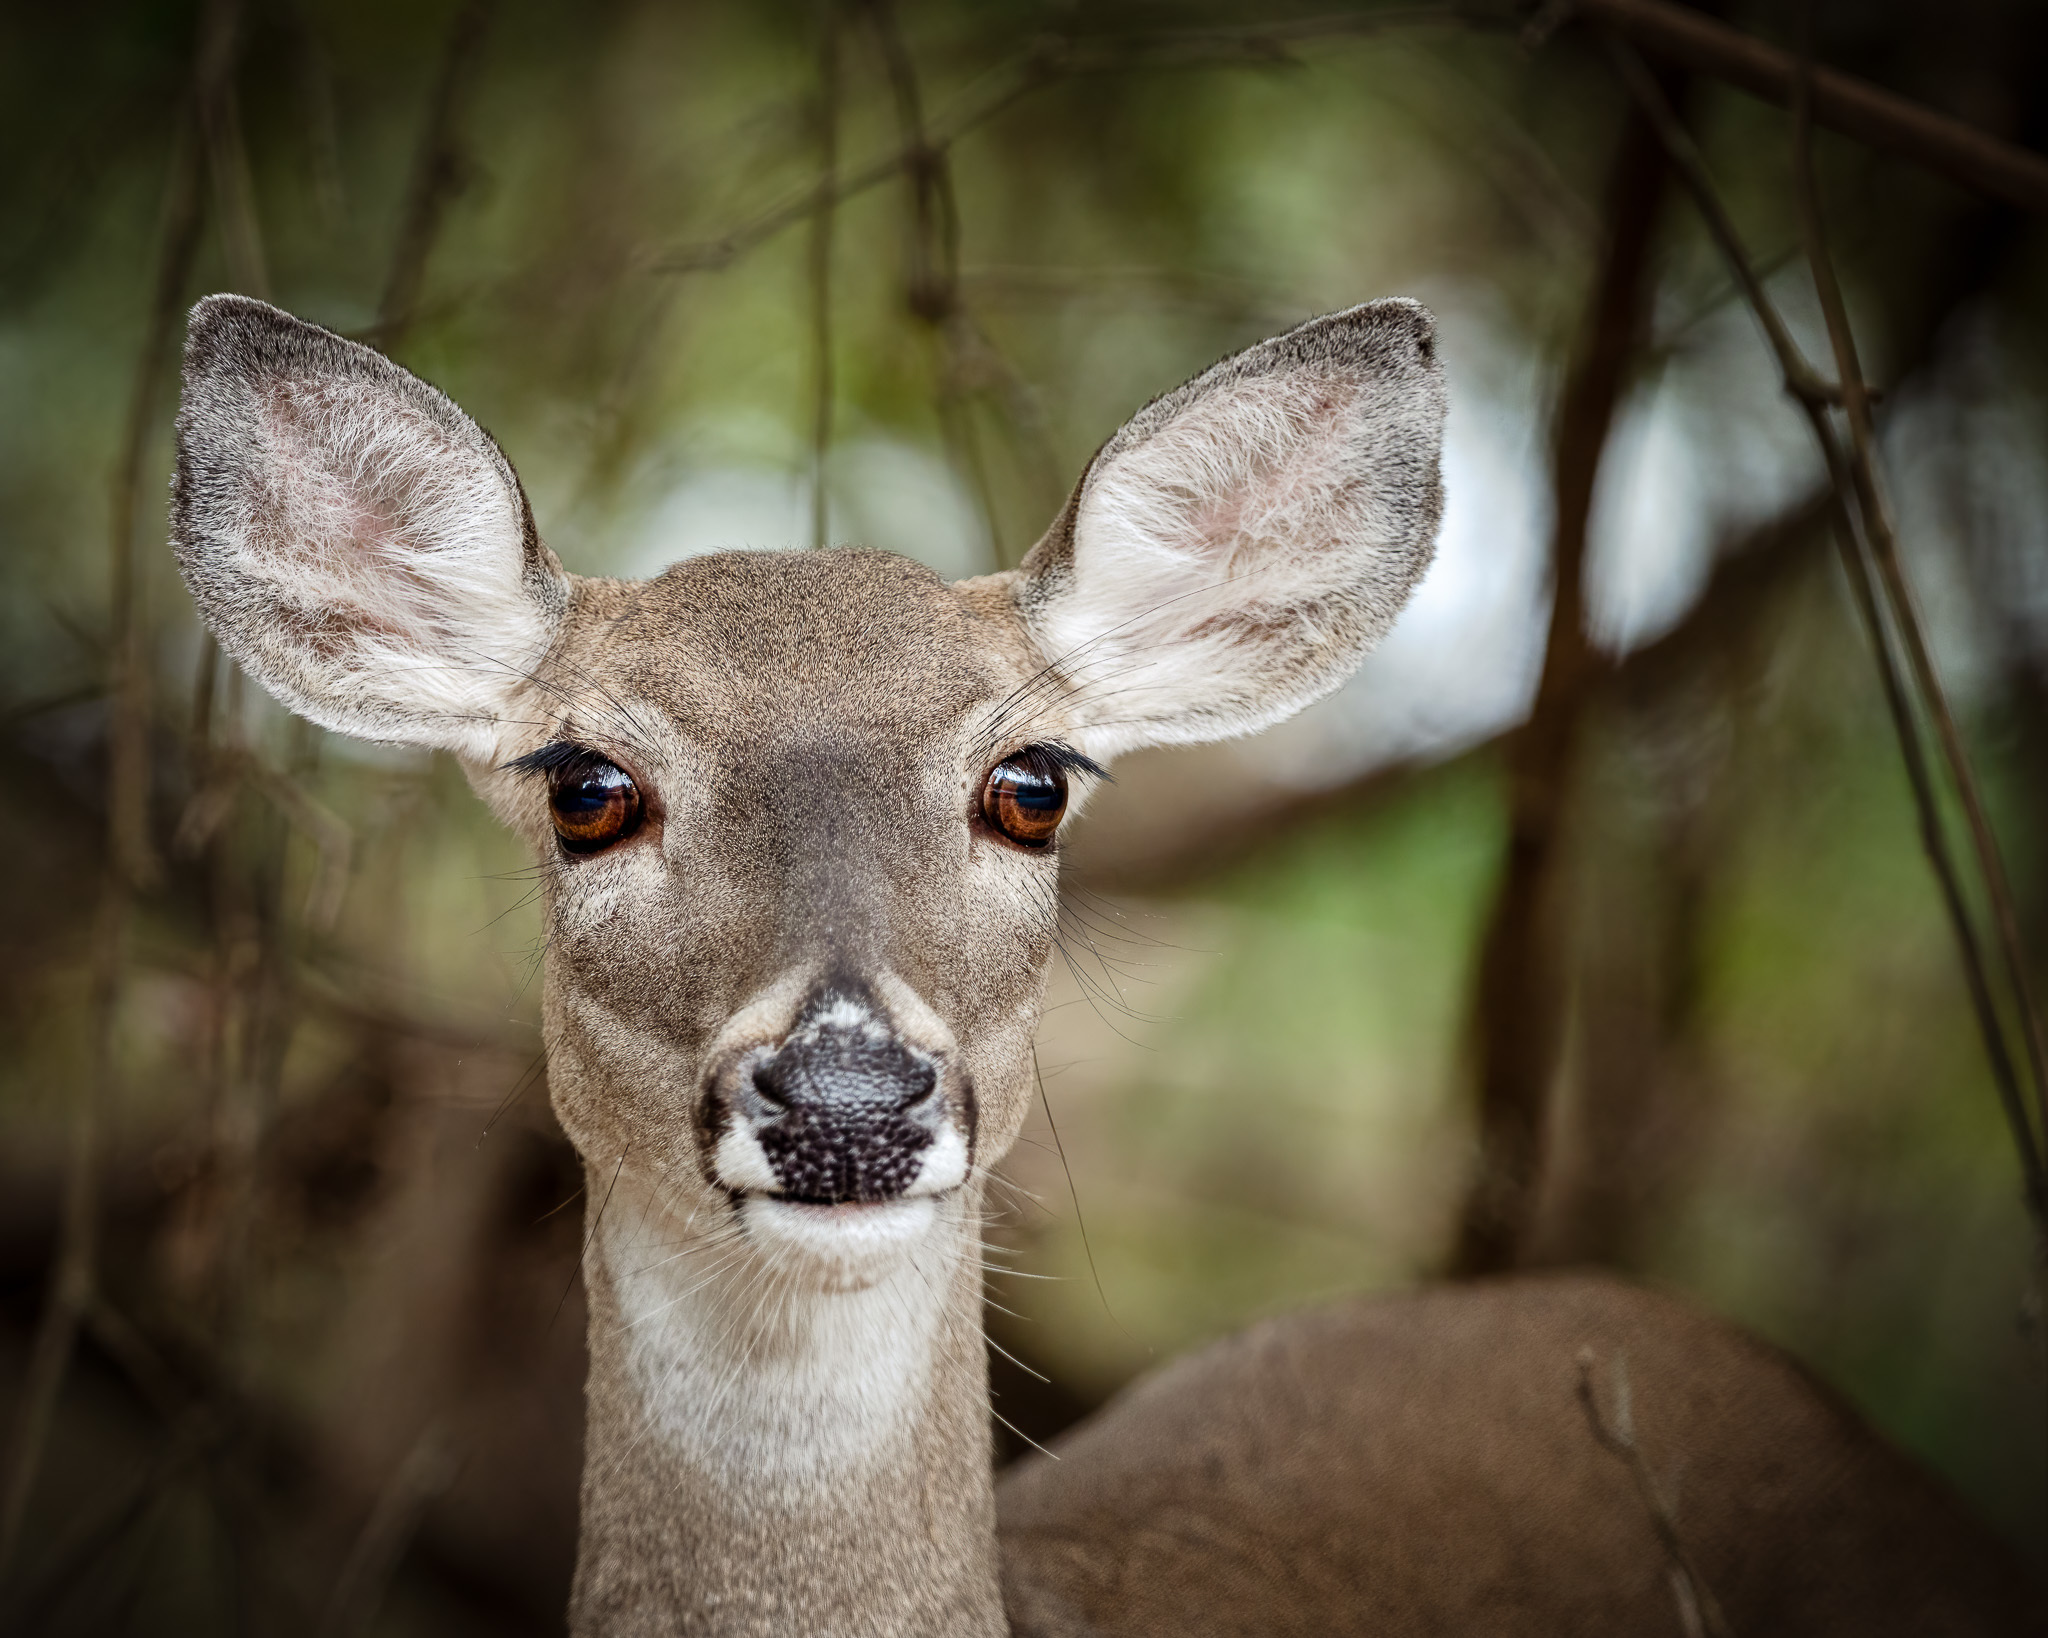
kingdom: Animalia
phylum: Chordata
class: Mammalia
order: Artiodactyla
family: Cervidae
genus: Odocoileus
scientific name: Odocoileus virginianus
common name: White-tailed deer
